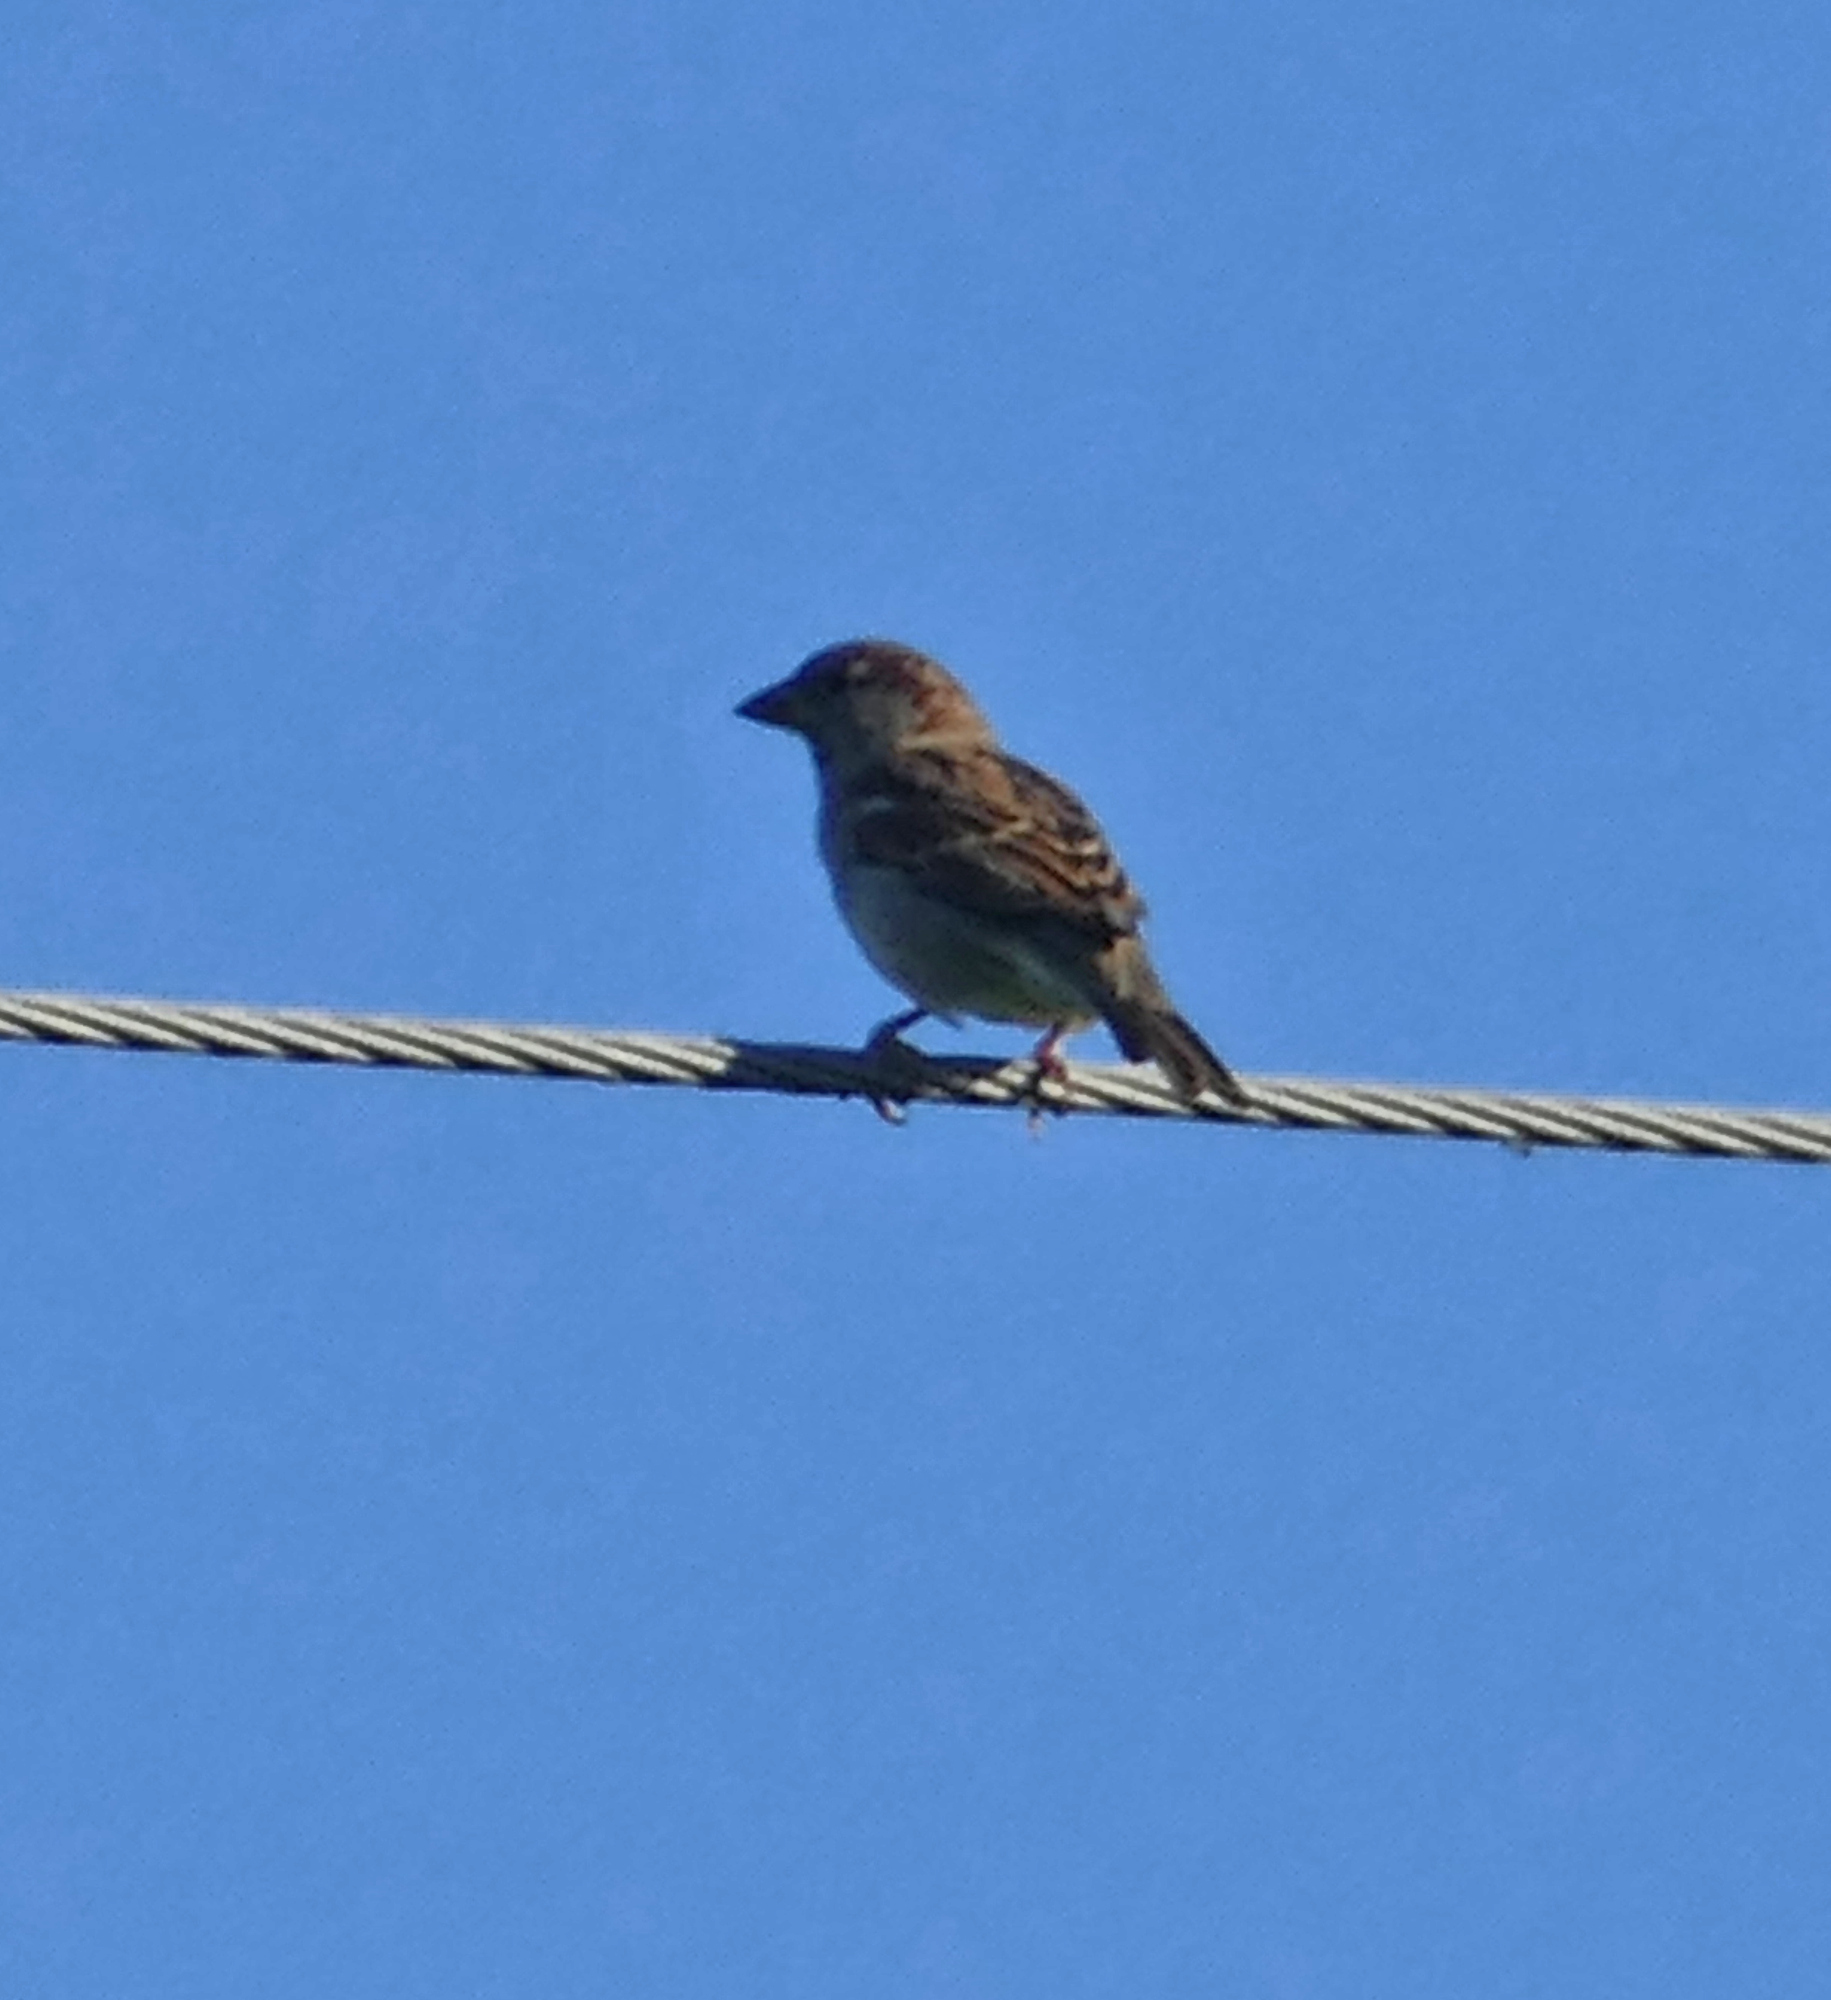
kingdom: Animalia
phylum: Chordata
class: Aves
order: Passeriformes
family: Passeridae
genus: Passer
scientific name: Passer domesticus
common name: House sparrow
